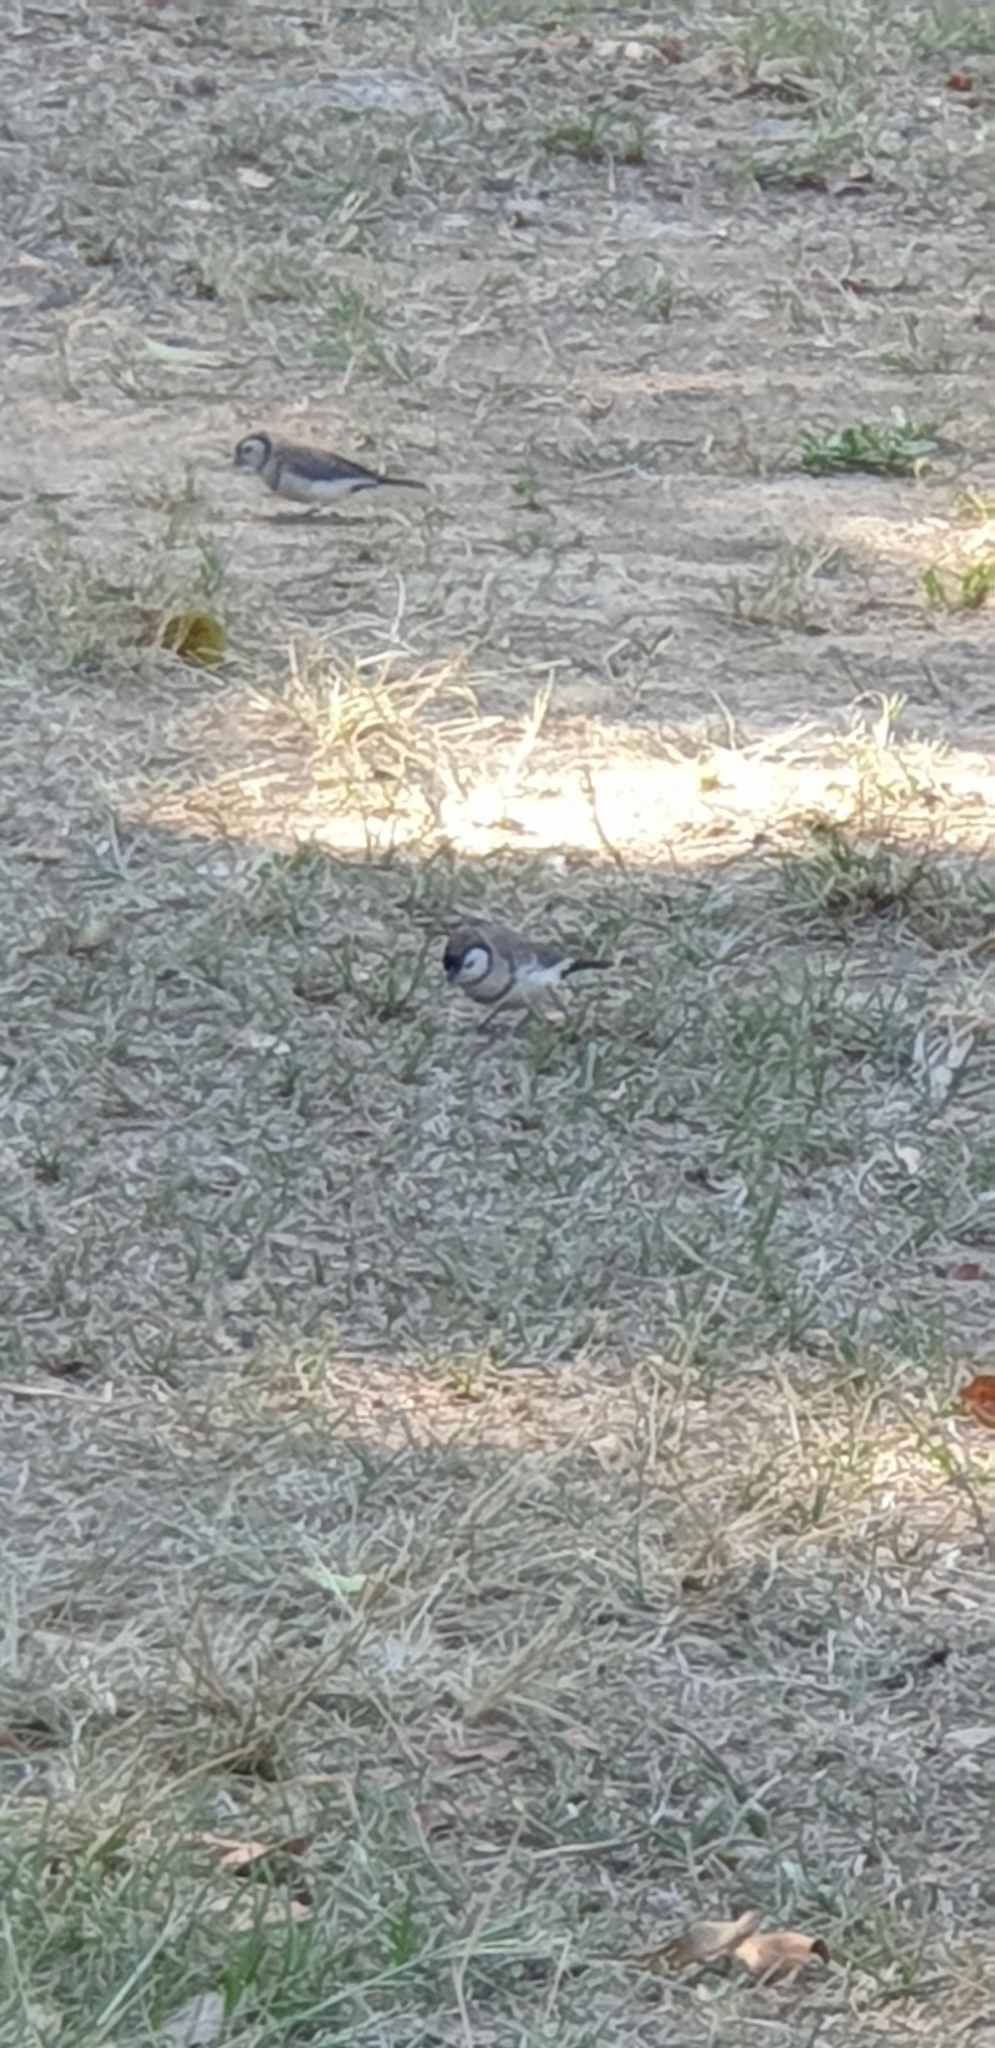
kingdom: Animalia
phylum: Chordata
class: Aves
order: Passeriformes
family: Estrildidae
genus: Taeniopygia
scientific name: Taeniopygia bichenovii
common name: Double-barred finch
